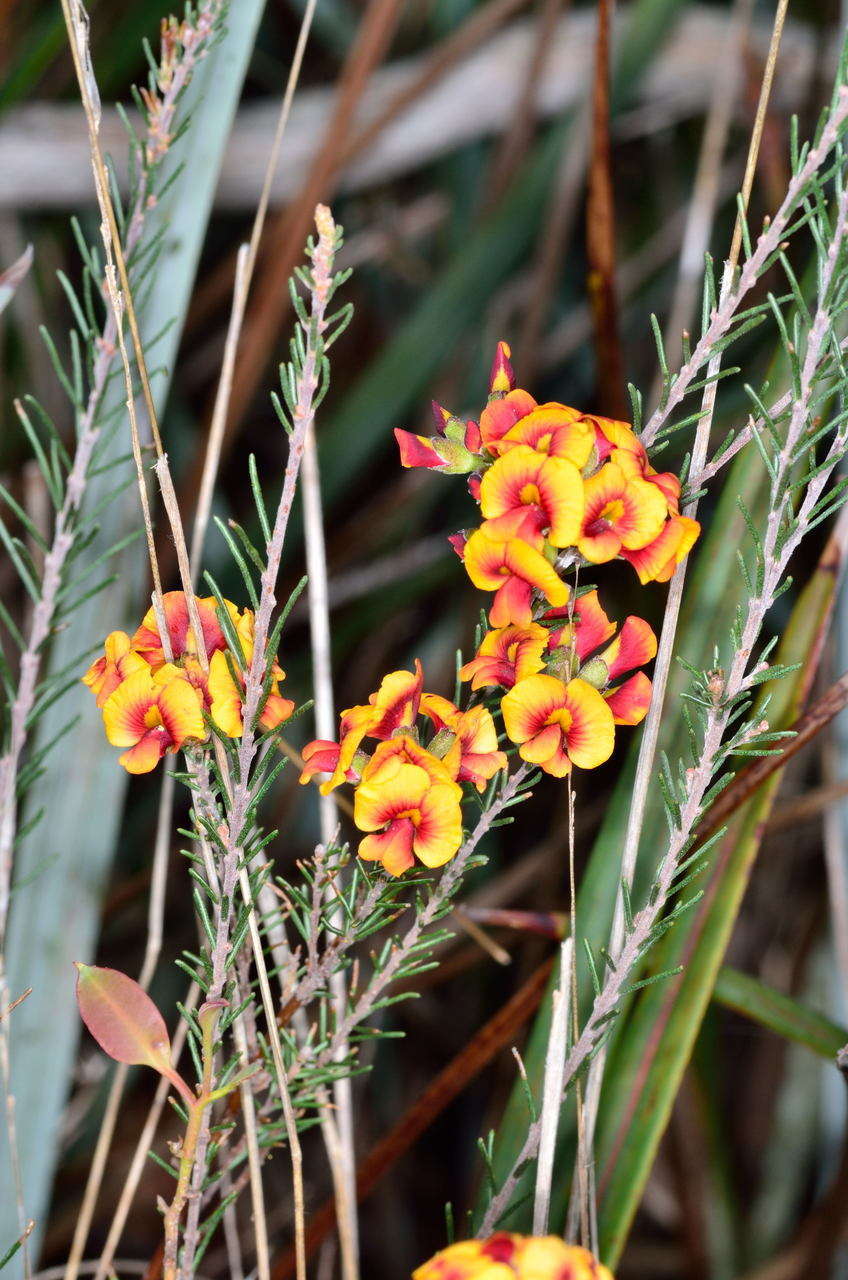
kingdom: Plantae
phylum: Tracheophyta
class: Magnoliopsida
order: Fabales
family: Fabaceae
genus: Dillwynia
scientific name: Dillwynia sericea
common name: Showy parrot-pea
